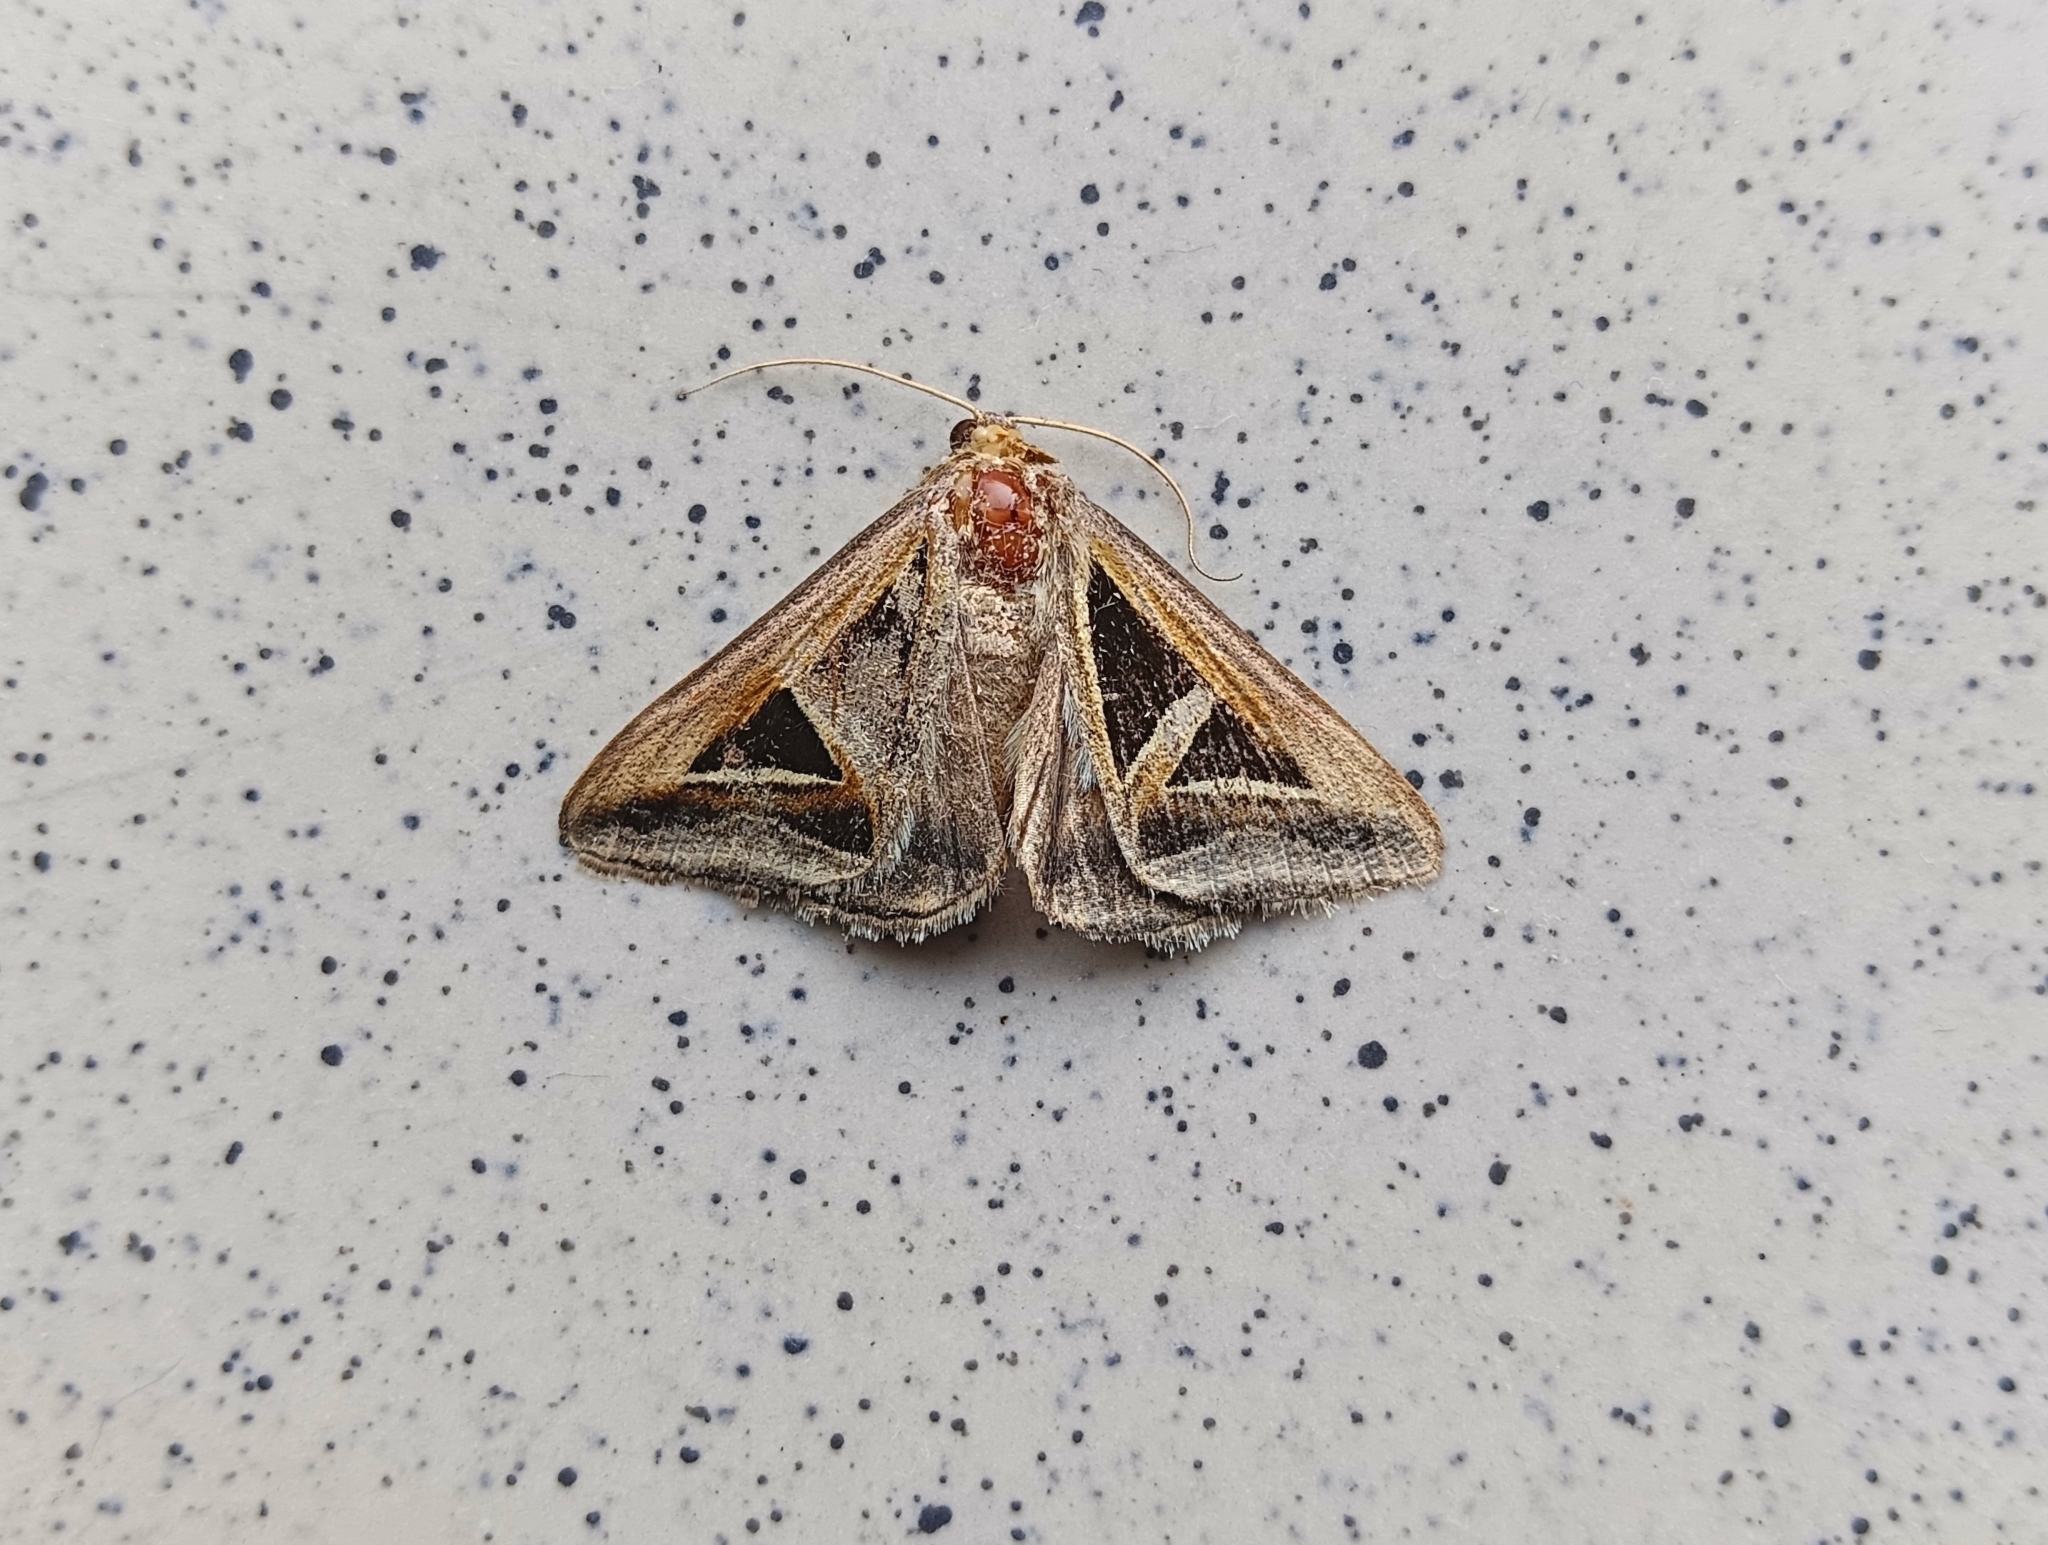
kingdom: Animalia
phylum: Arthropoda
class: Insecta
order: Lepidoptera
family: Erebidae
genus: Trigonodes
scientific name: Trigonodes hyppasia
